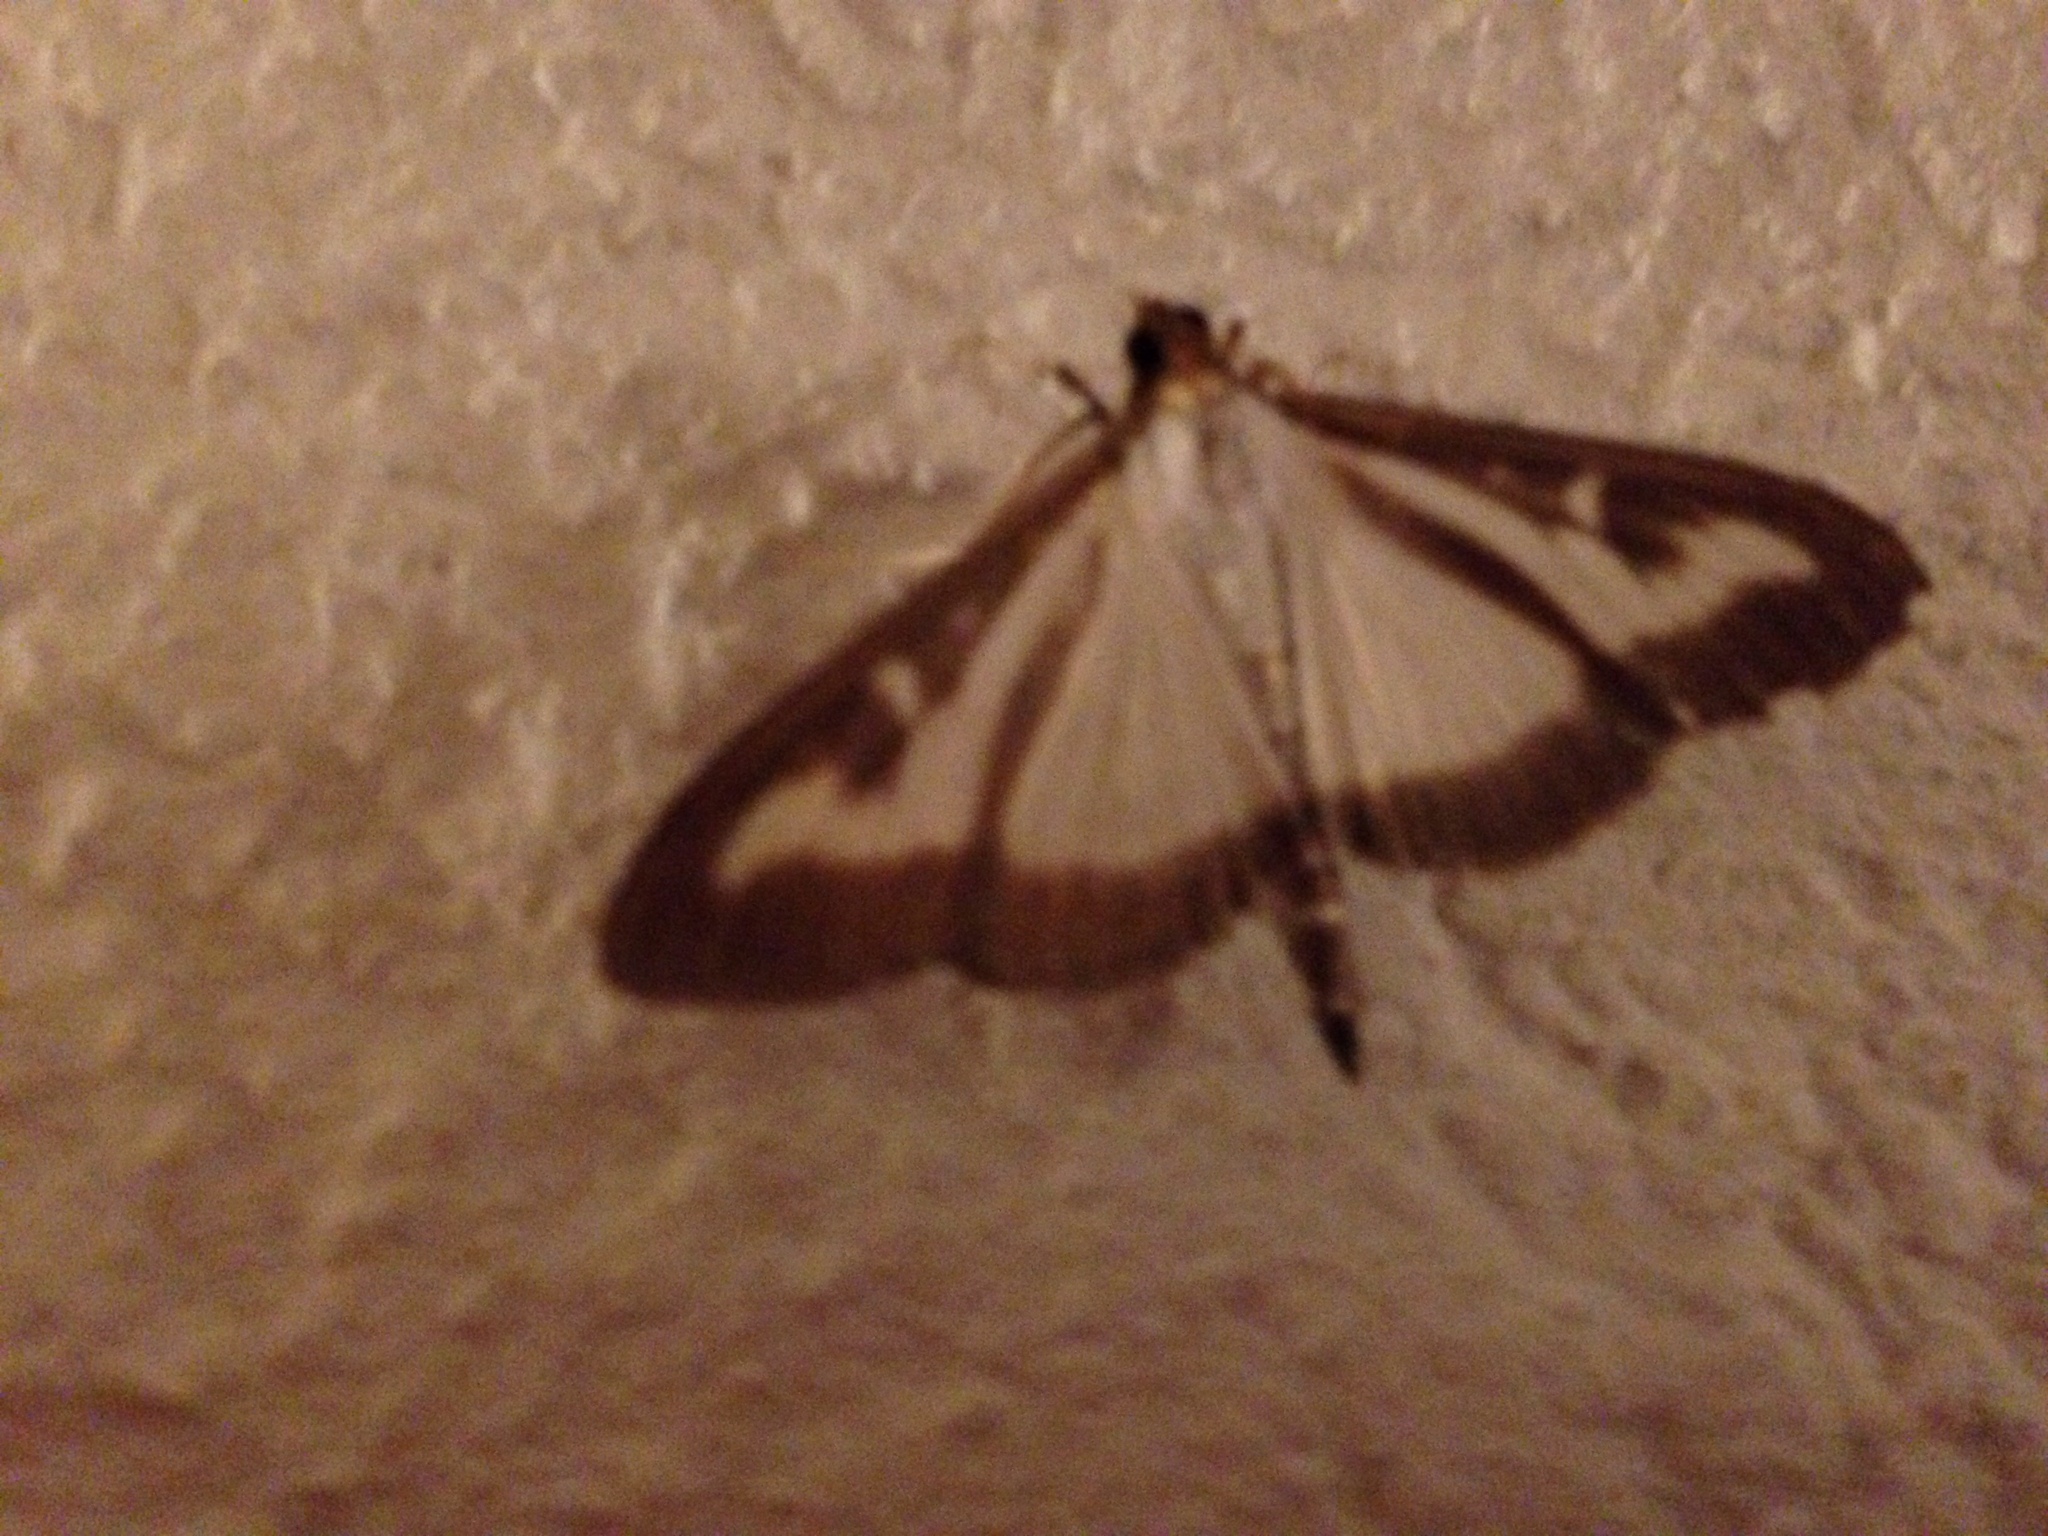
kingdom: Animalia
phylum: Arthropoda
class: Insecta
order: Lepidoptera
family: Crambidae
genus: Cydalima
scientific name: Cydalima perspectalis
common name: Box tree moth
